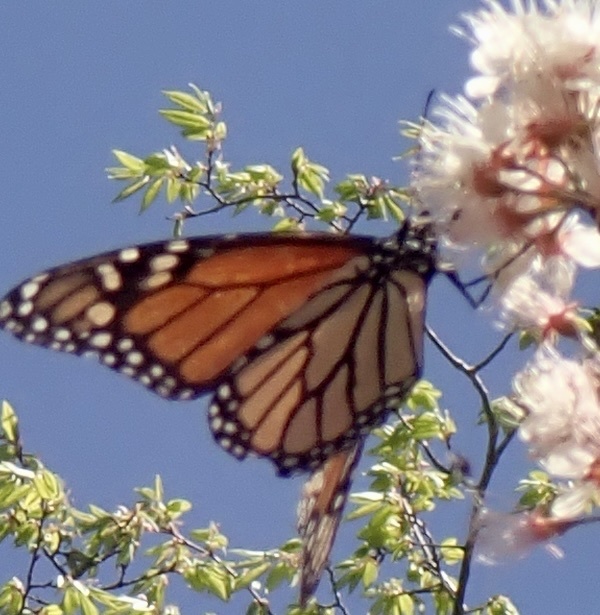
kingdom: Animalia
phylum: Arthropoda
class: Insecta
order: Lepidoptera
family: Nymphalidae
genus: Danaus
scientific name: Danaus plexippus
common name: Monarch
